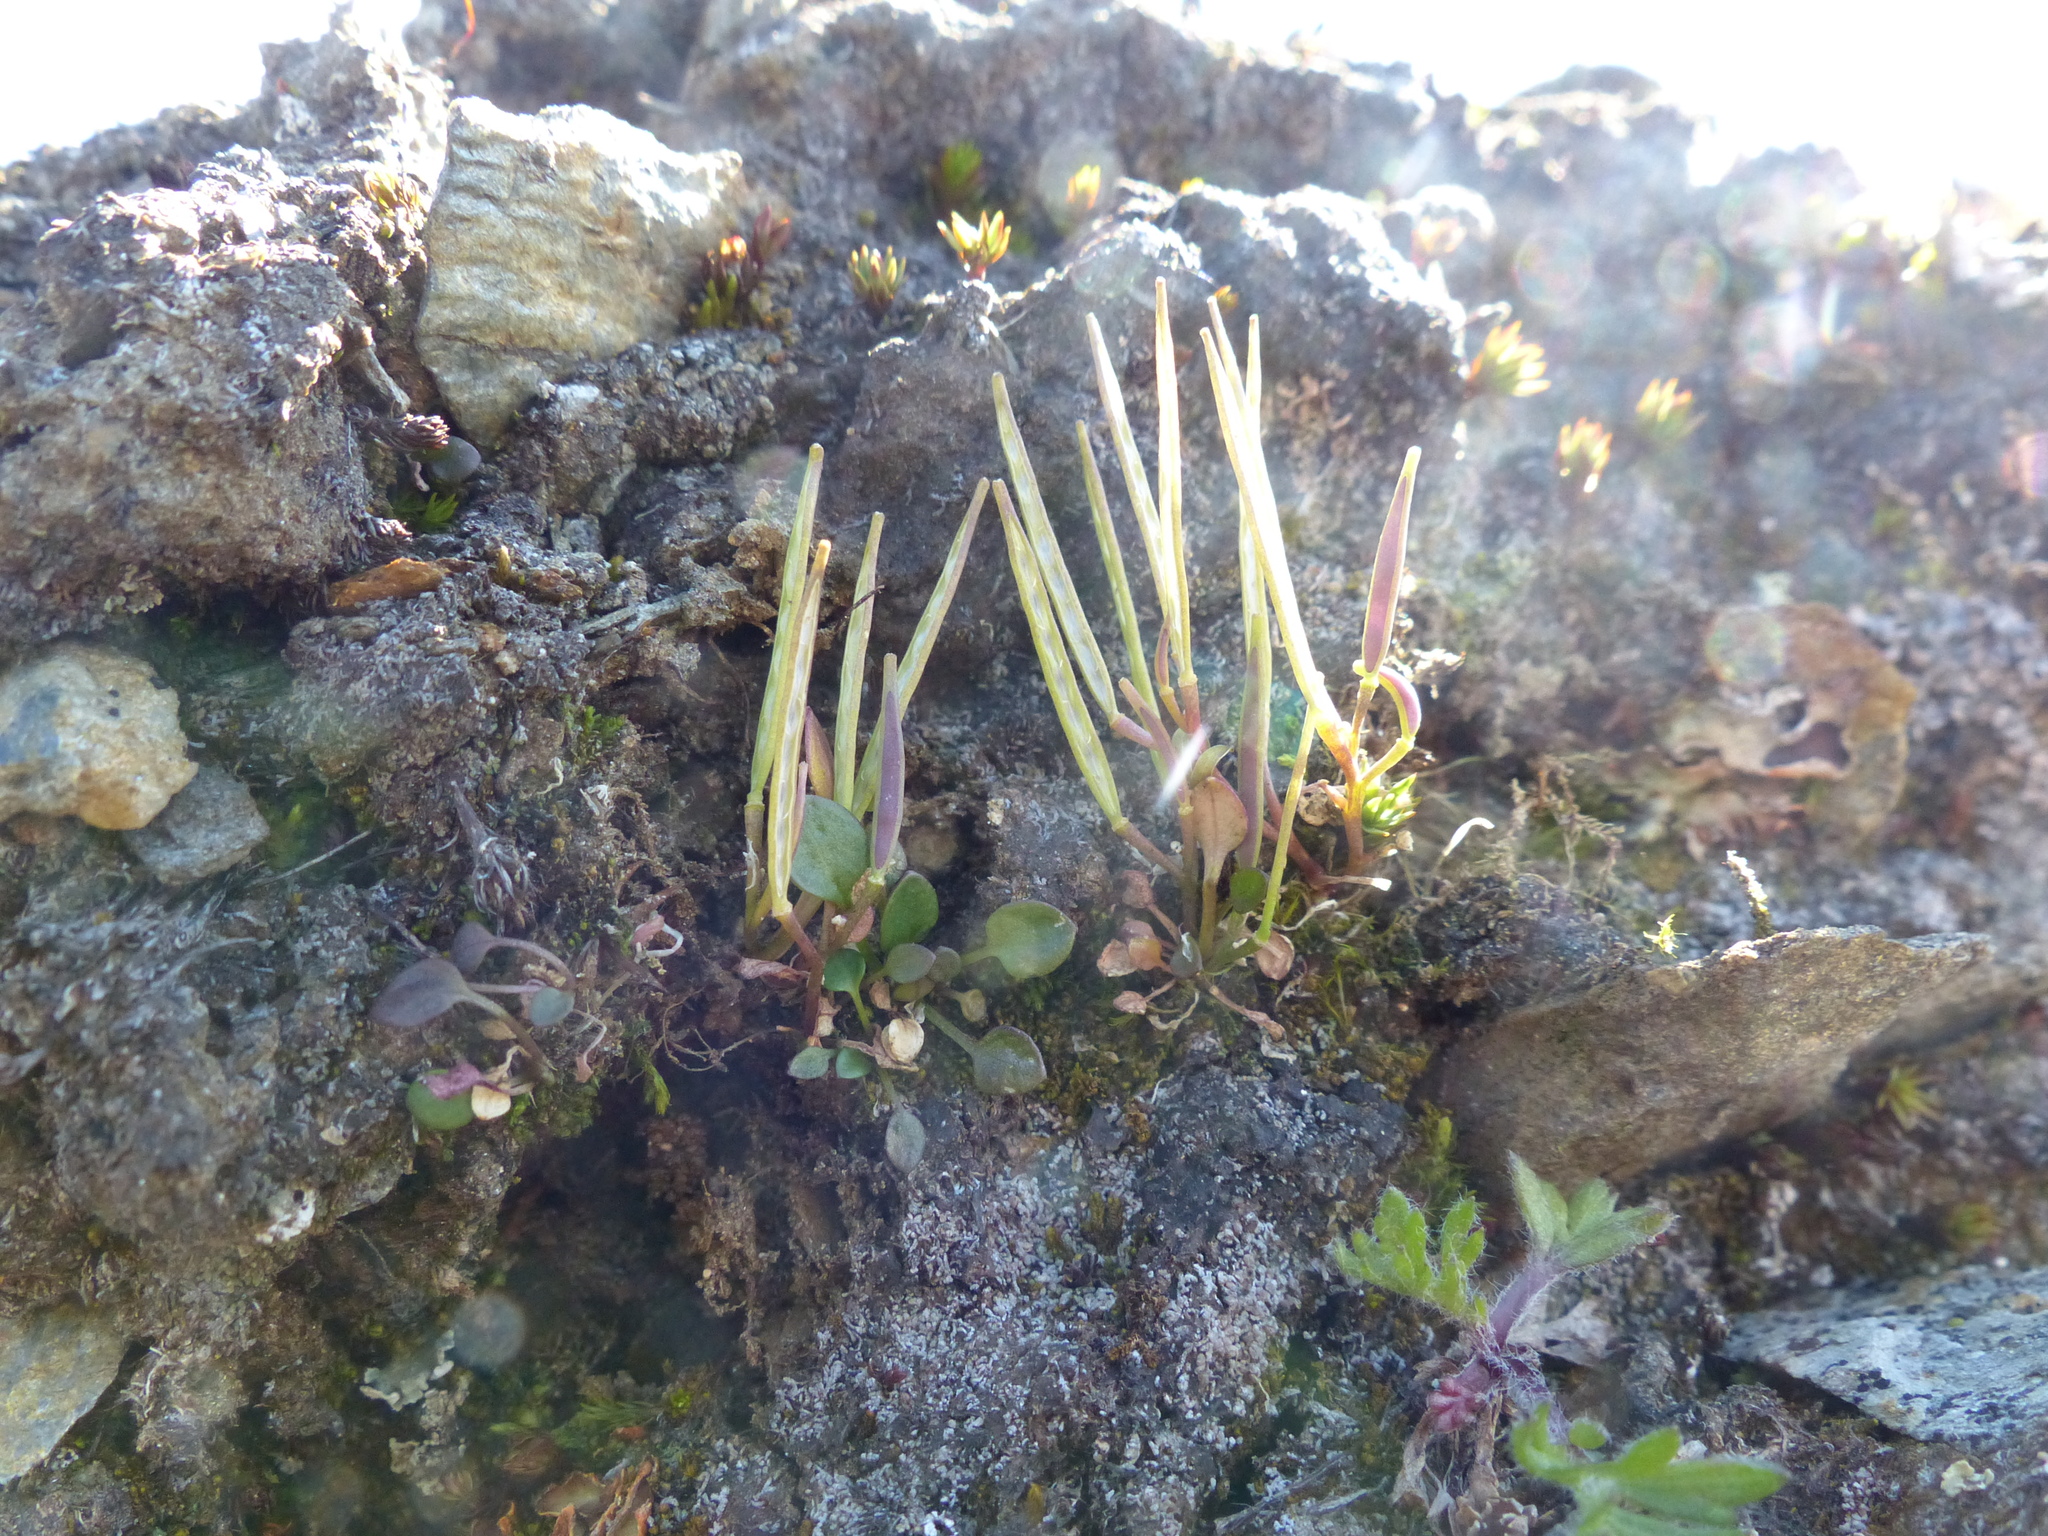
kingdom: Plantae
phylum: Tracheophyta
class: Magnoliopsida
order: Brassicales
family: Brassicaceae
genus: Cardamine
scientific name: Cardamine bellidifolia
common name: Alpine bittercress
